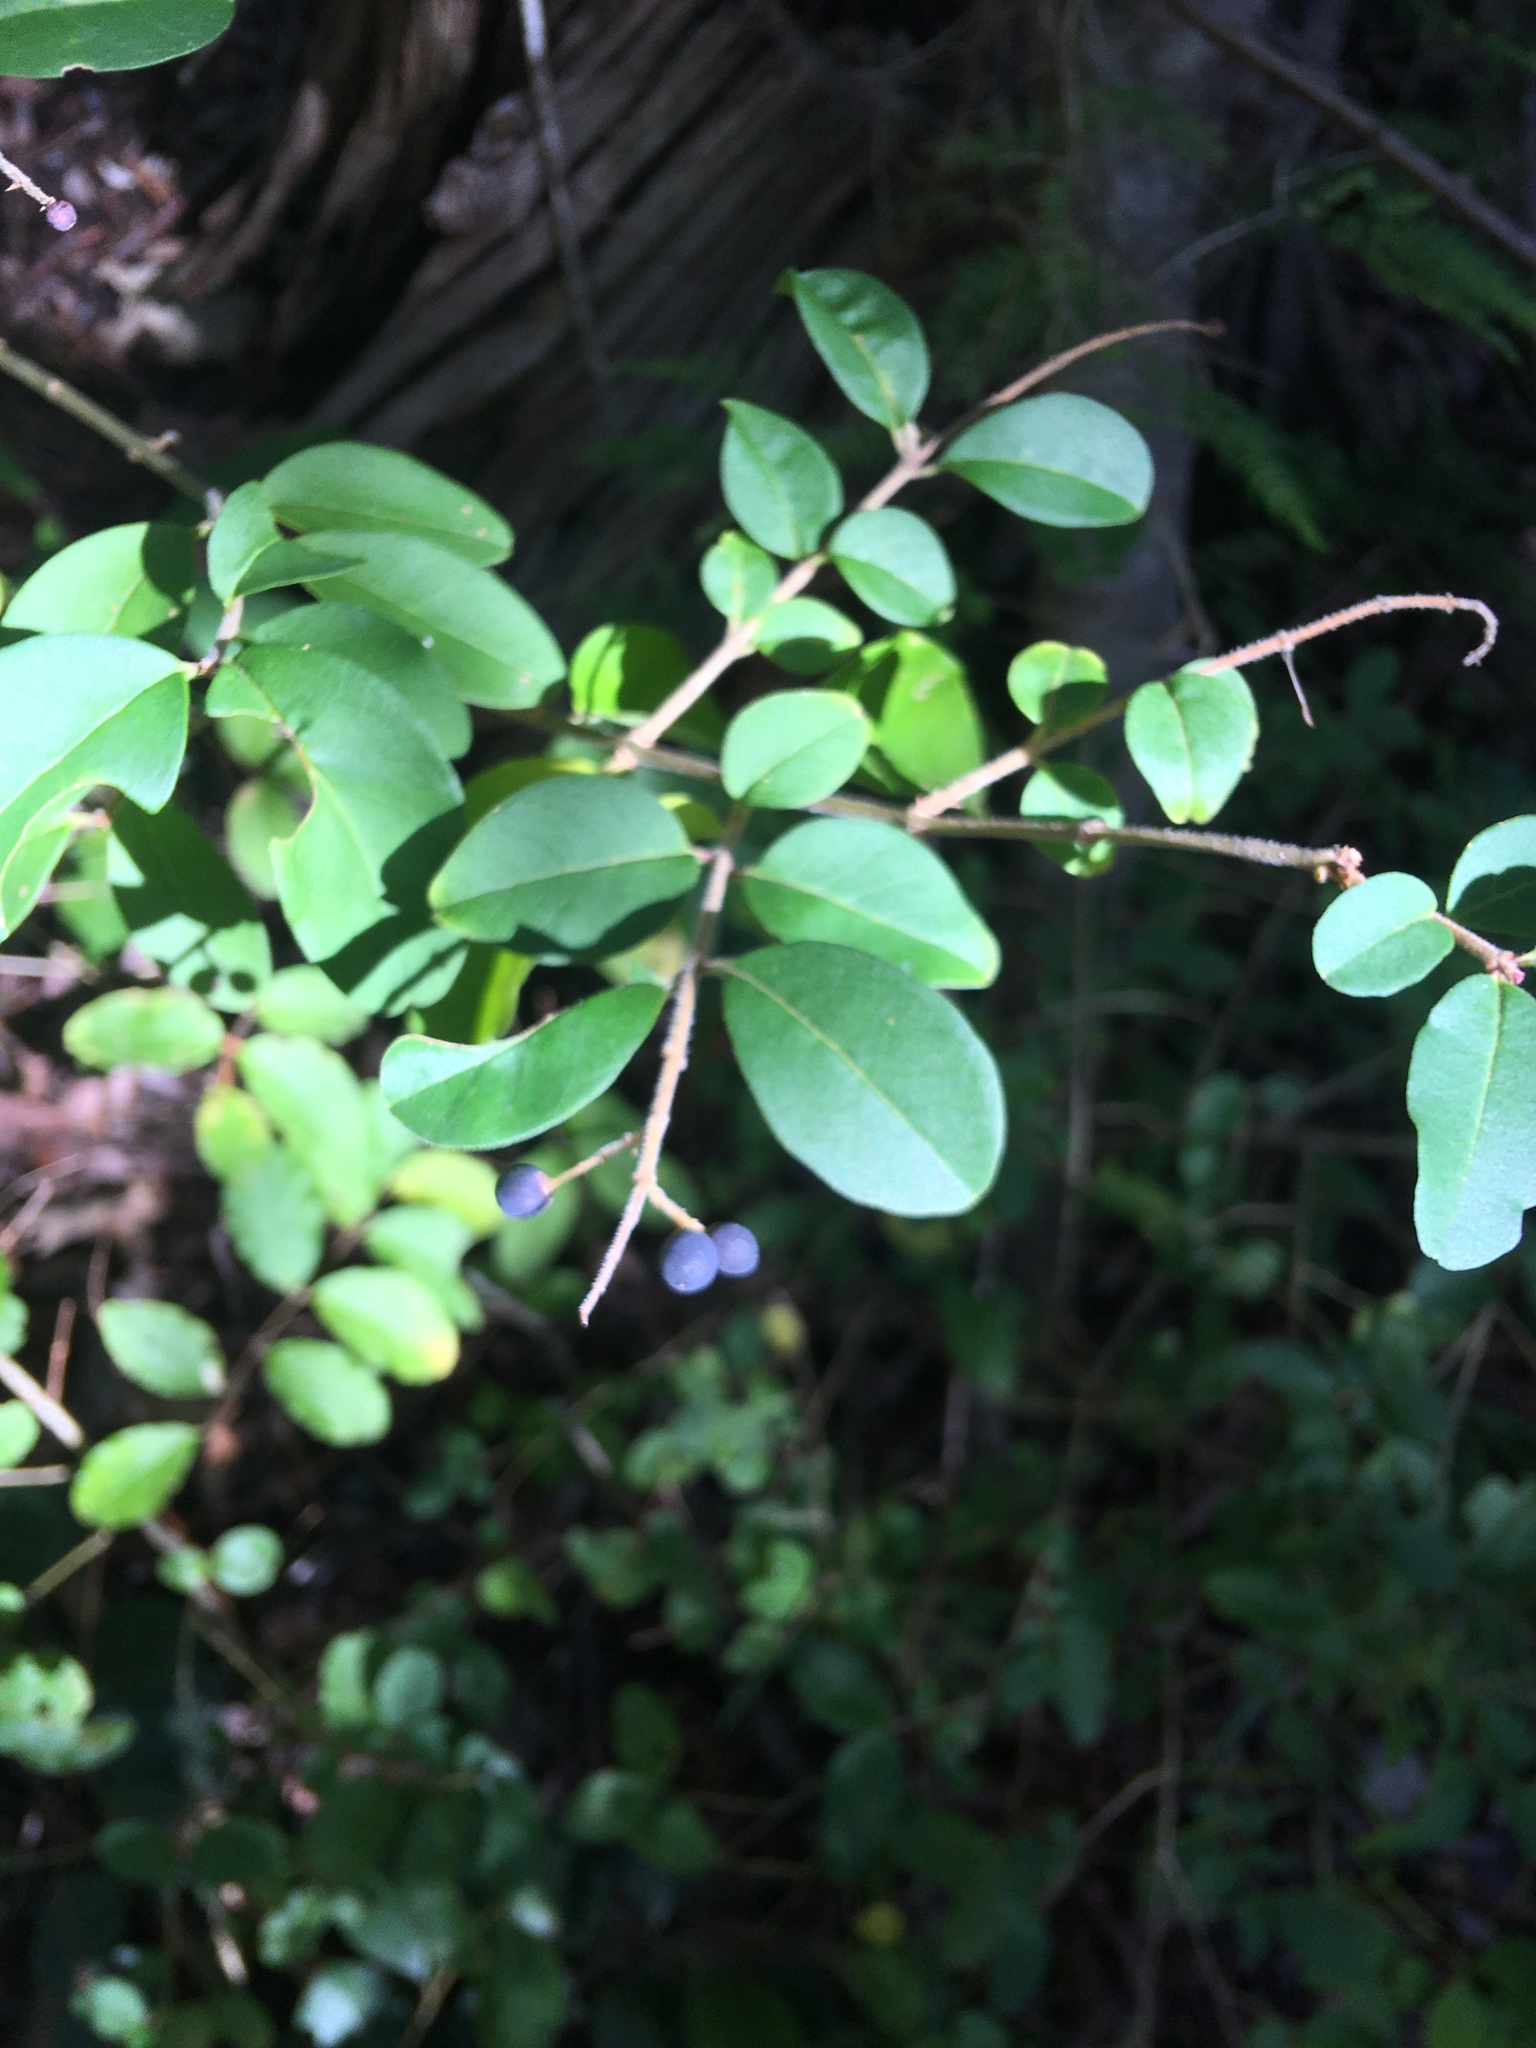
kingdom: Plantae
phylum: Tracheophyta
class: Magnoliopsida
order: Lamiales
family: Oleaceae
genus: Ligustrum
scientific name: Ligustrum sinense
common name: Chinese privet
